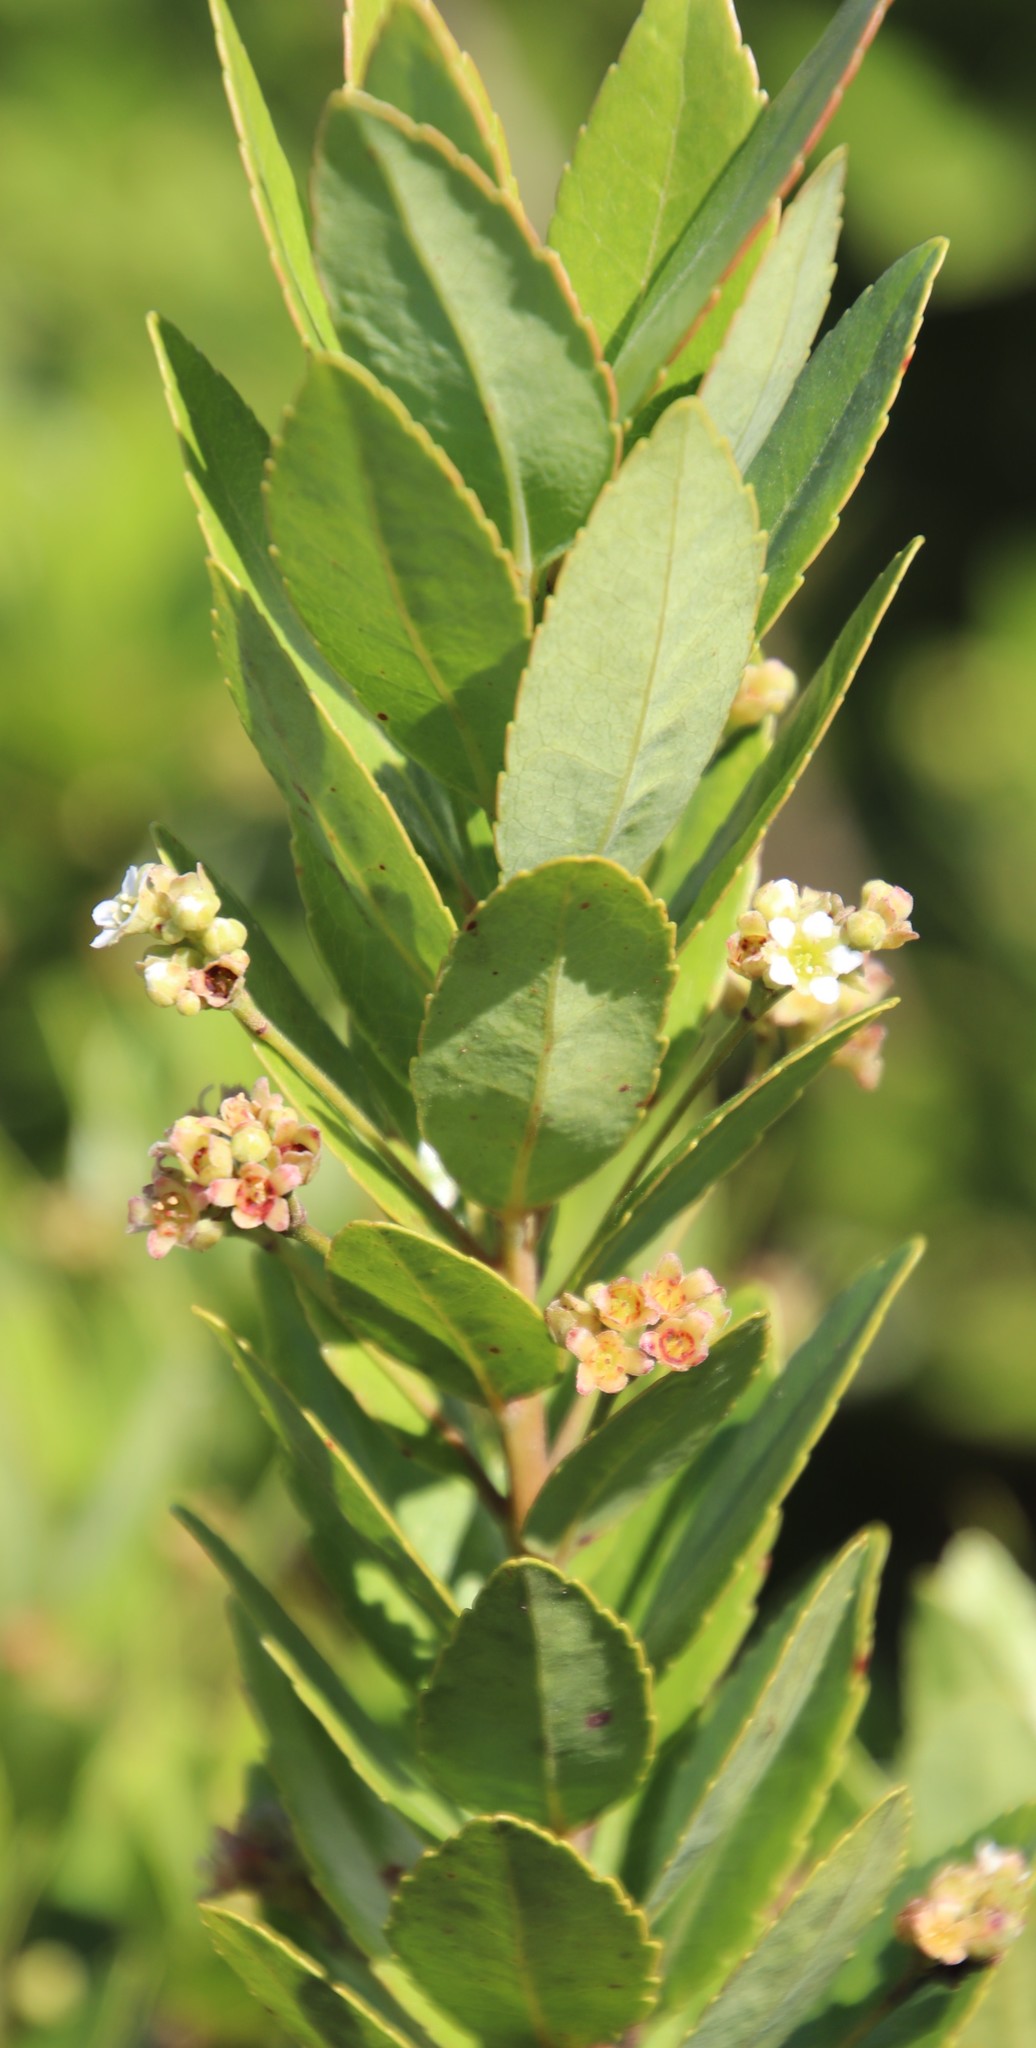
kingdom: Plantae
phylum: Tracheophyta
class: Magnoliopsida
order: Huerteales
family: Gerrardinaceae
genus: Gerrardina
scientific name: Gerrardina foliosa
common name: Krantz-berry
